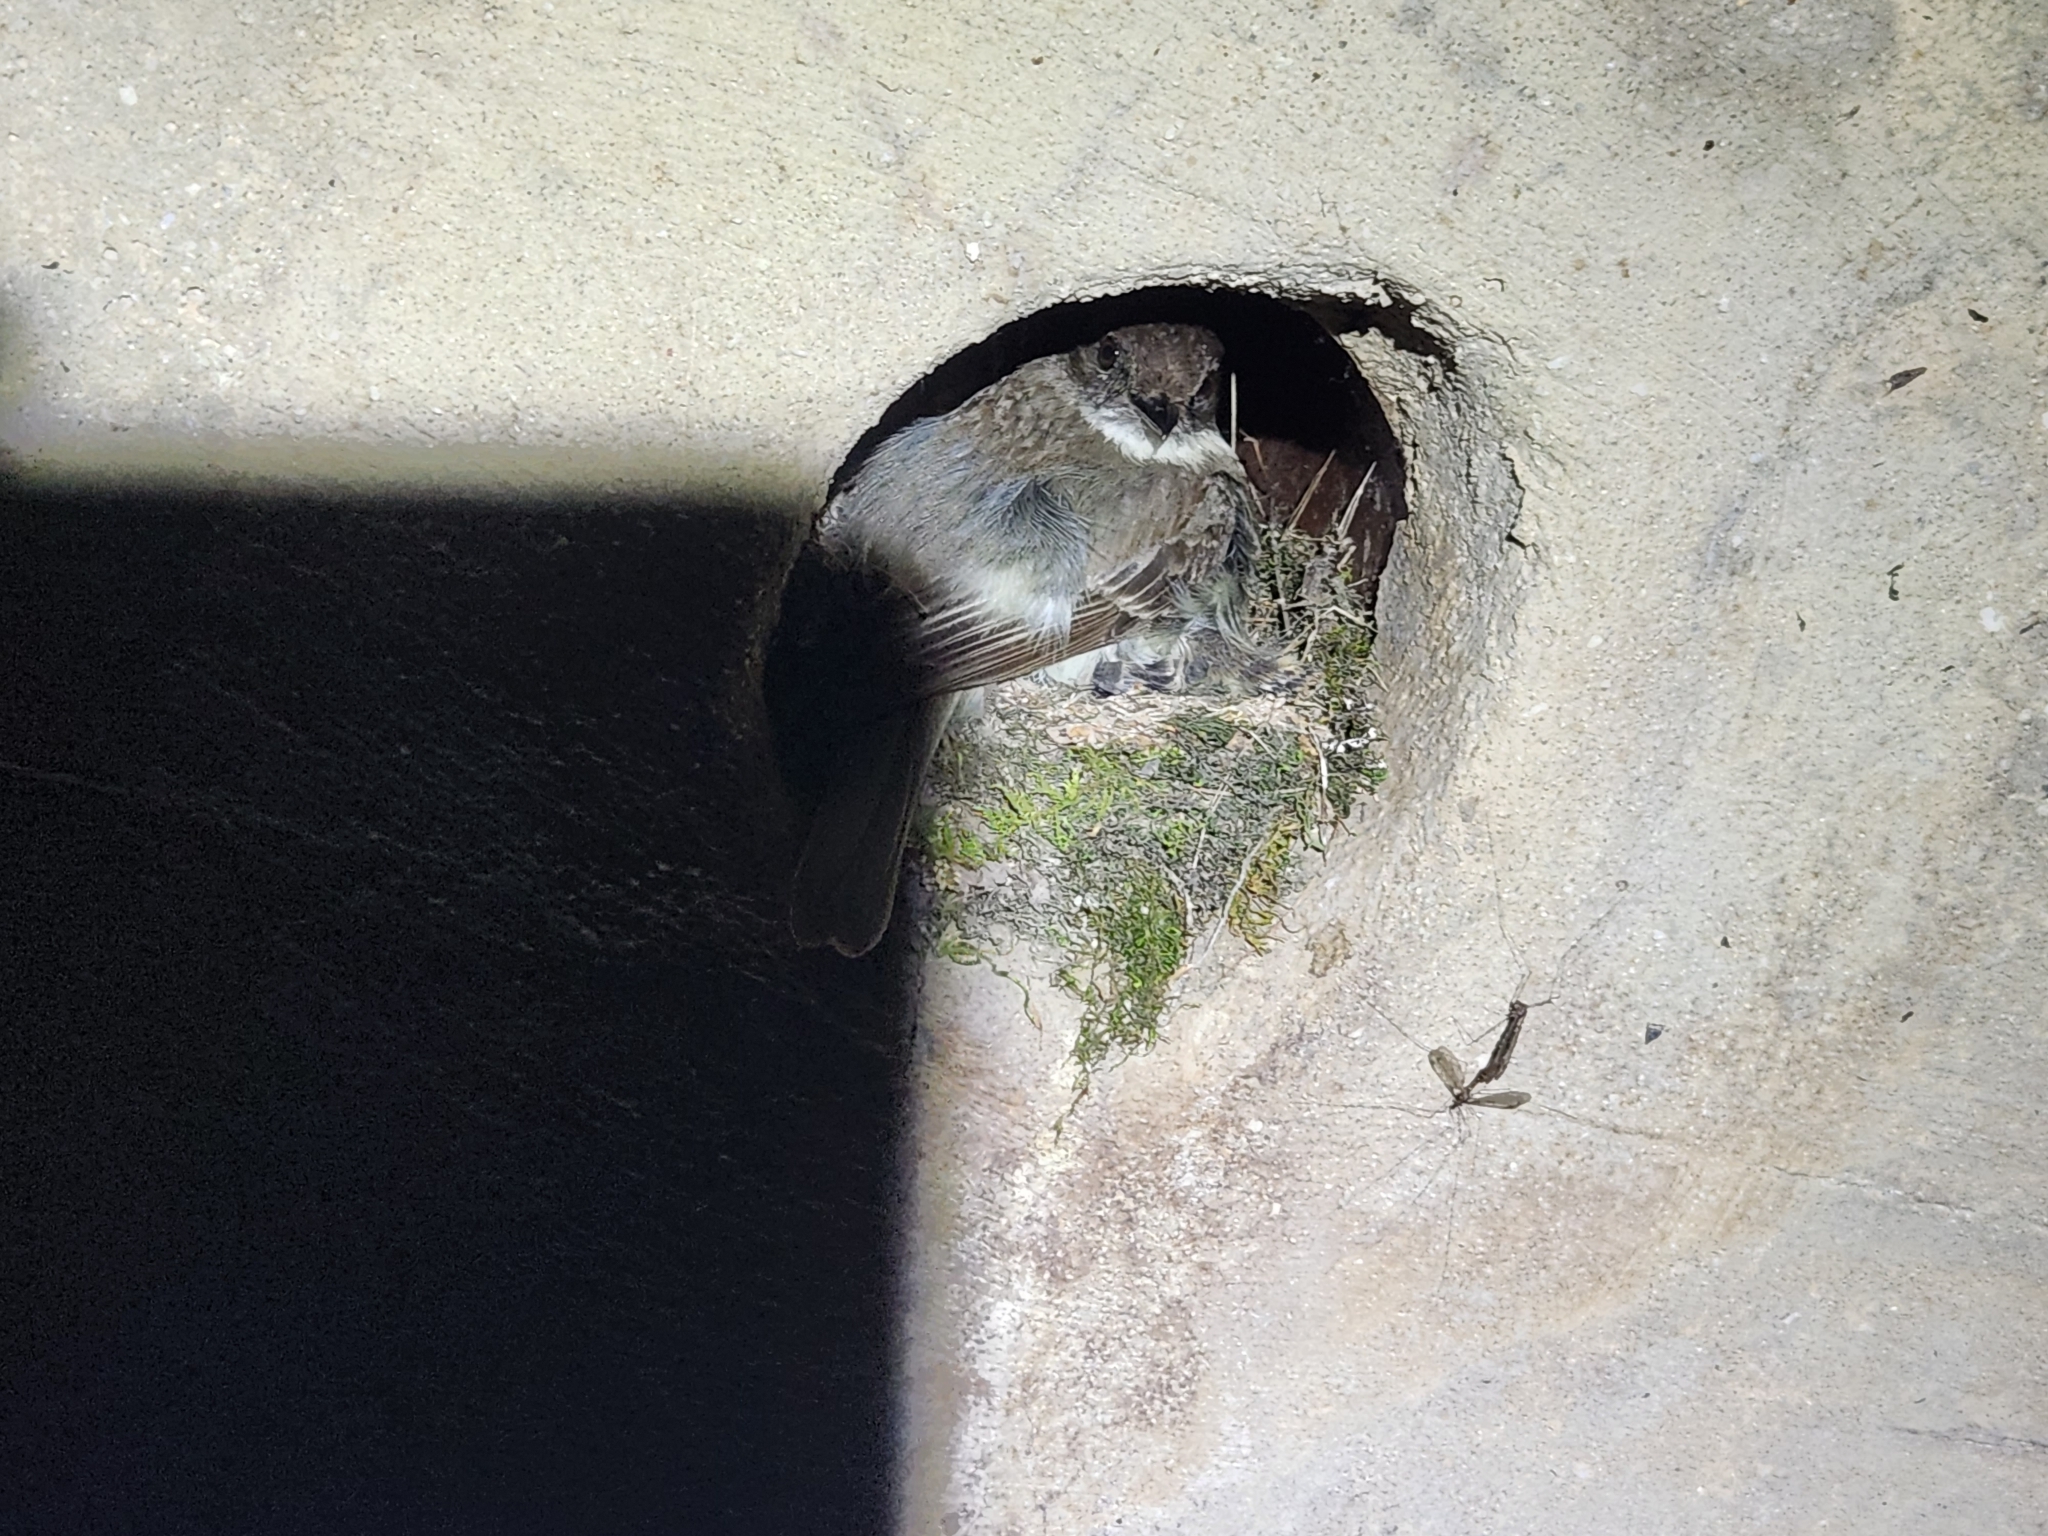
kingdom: Animalia
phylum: Chordata
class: Aves
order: Passeriformes
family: Tyrannidae
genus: Sayornis
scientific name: Sayornis phoebe
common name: Eastern phoebe
